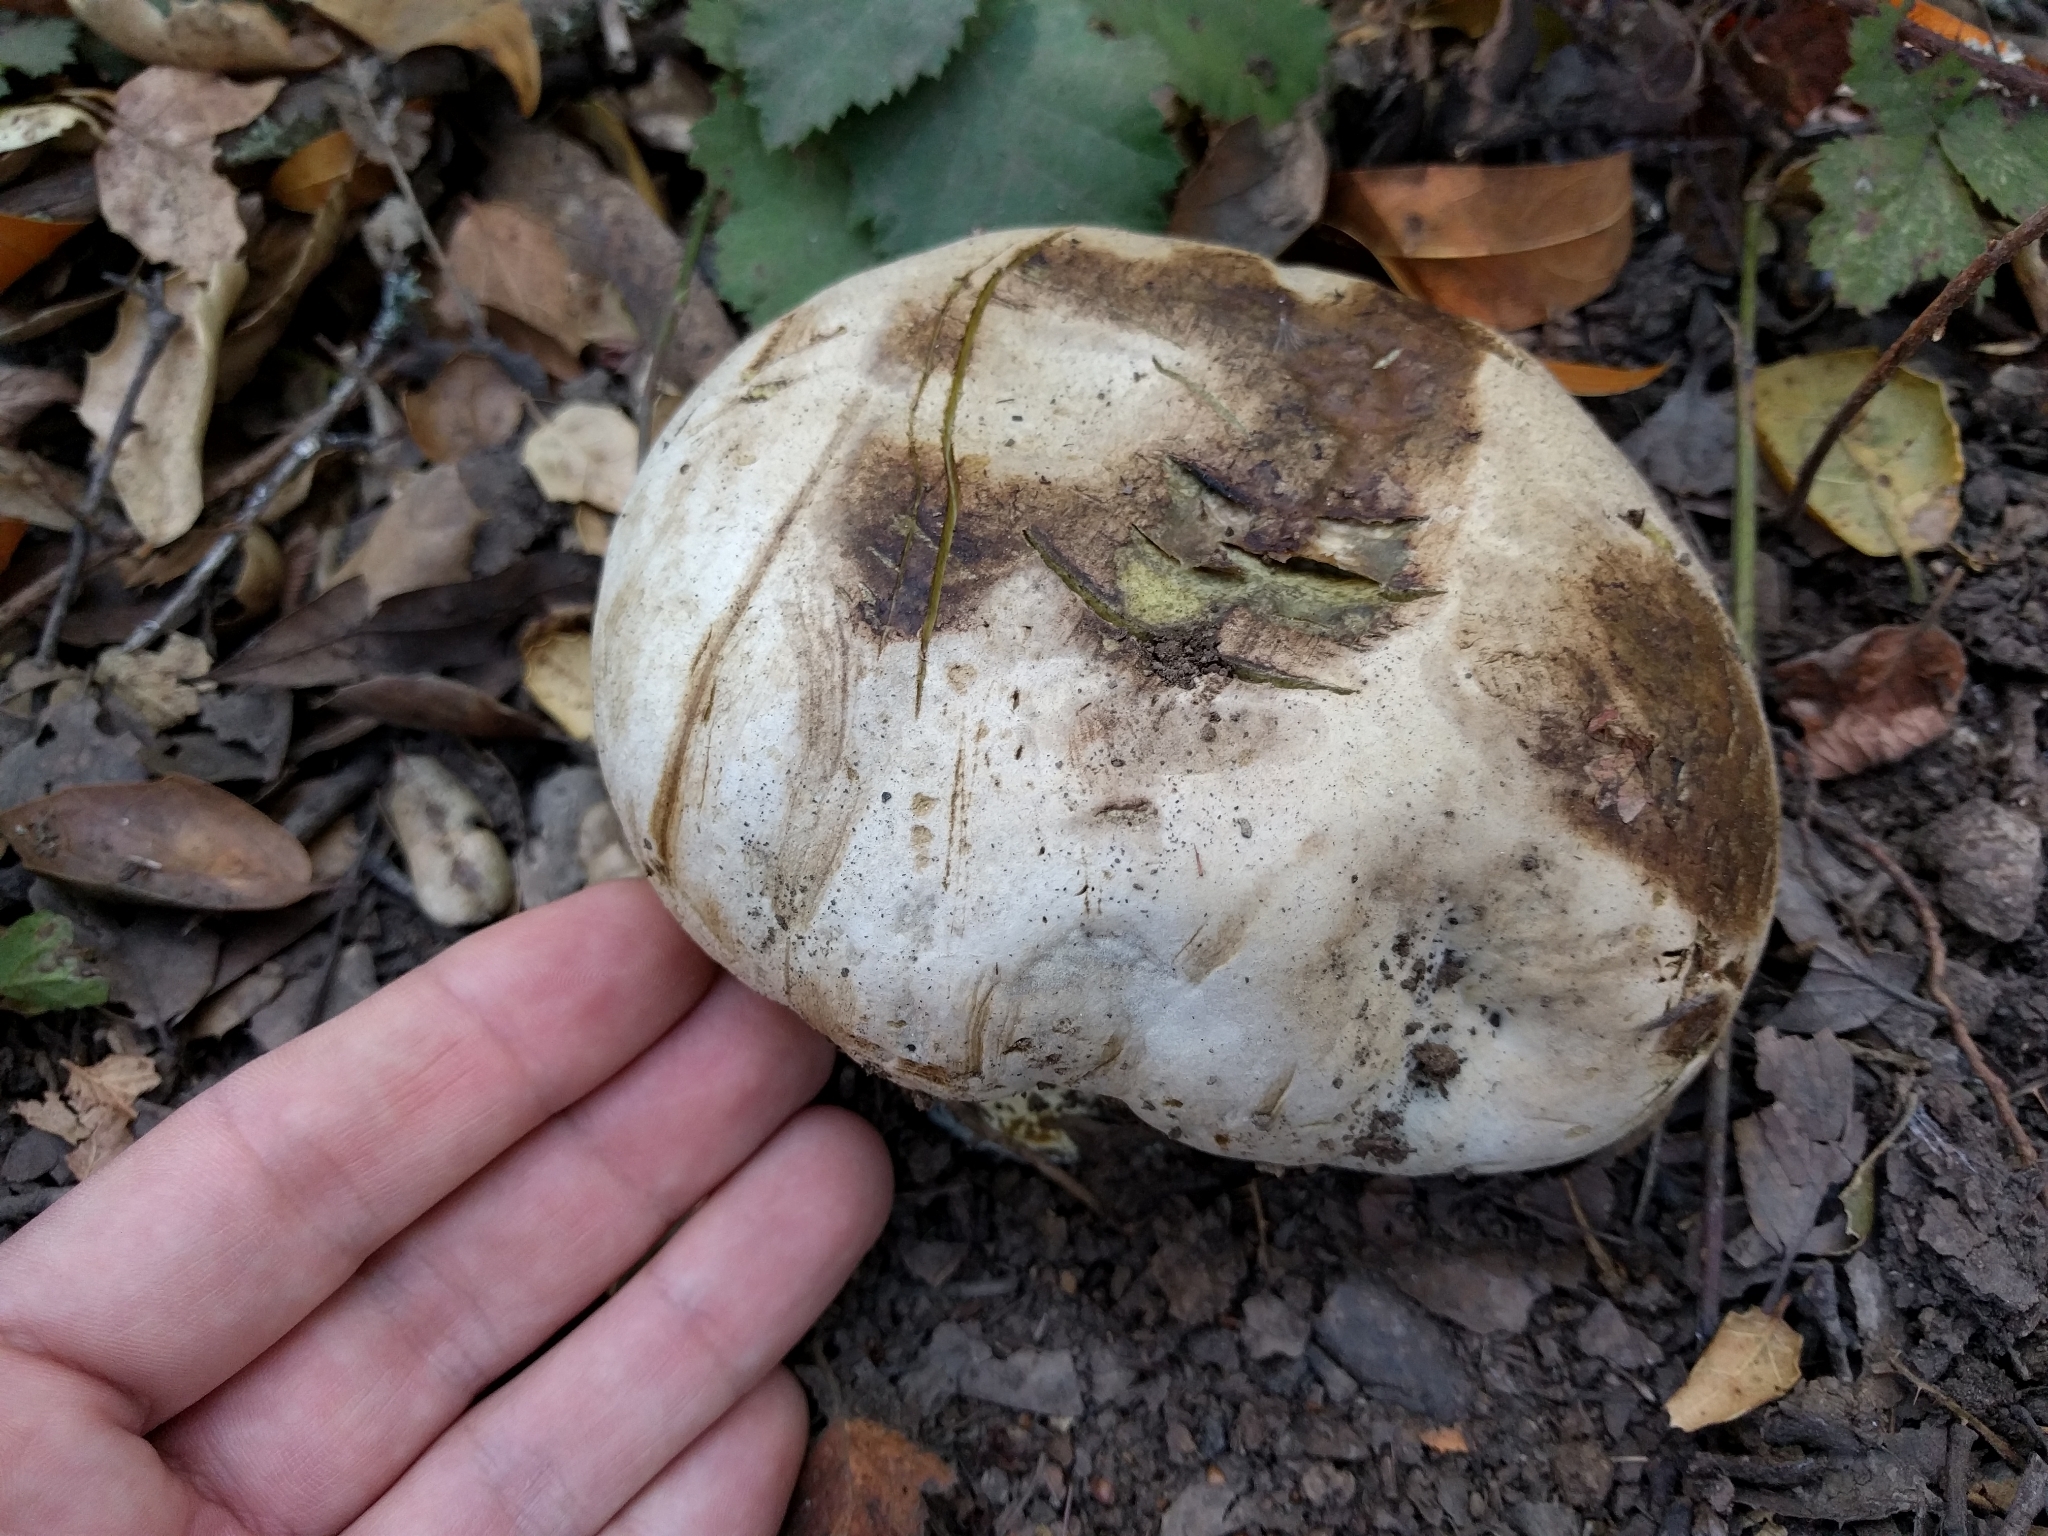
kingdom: Fungi
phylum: Basidiomycota
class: Agaricomycetes
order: Boletales
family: Boletaceae
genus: Caloboletus
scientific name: Caloboletus marshii
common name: Ben's bitter bolete
